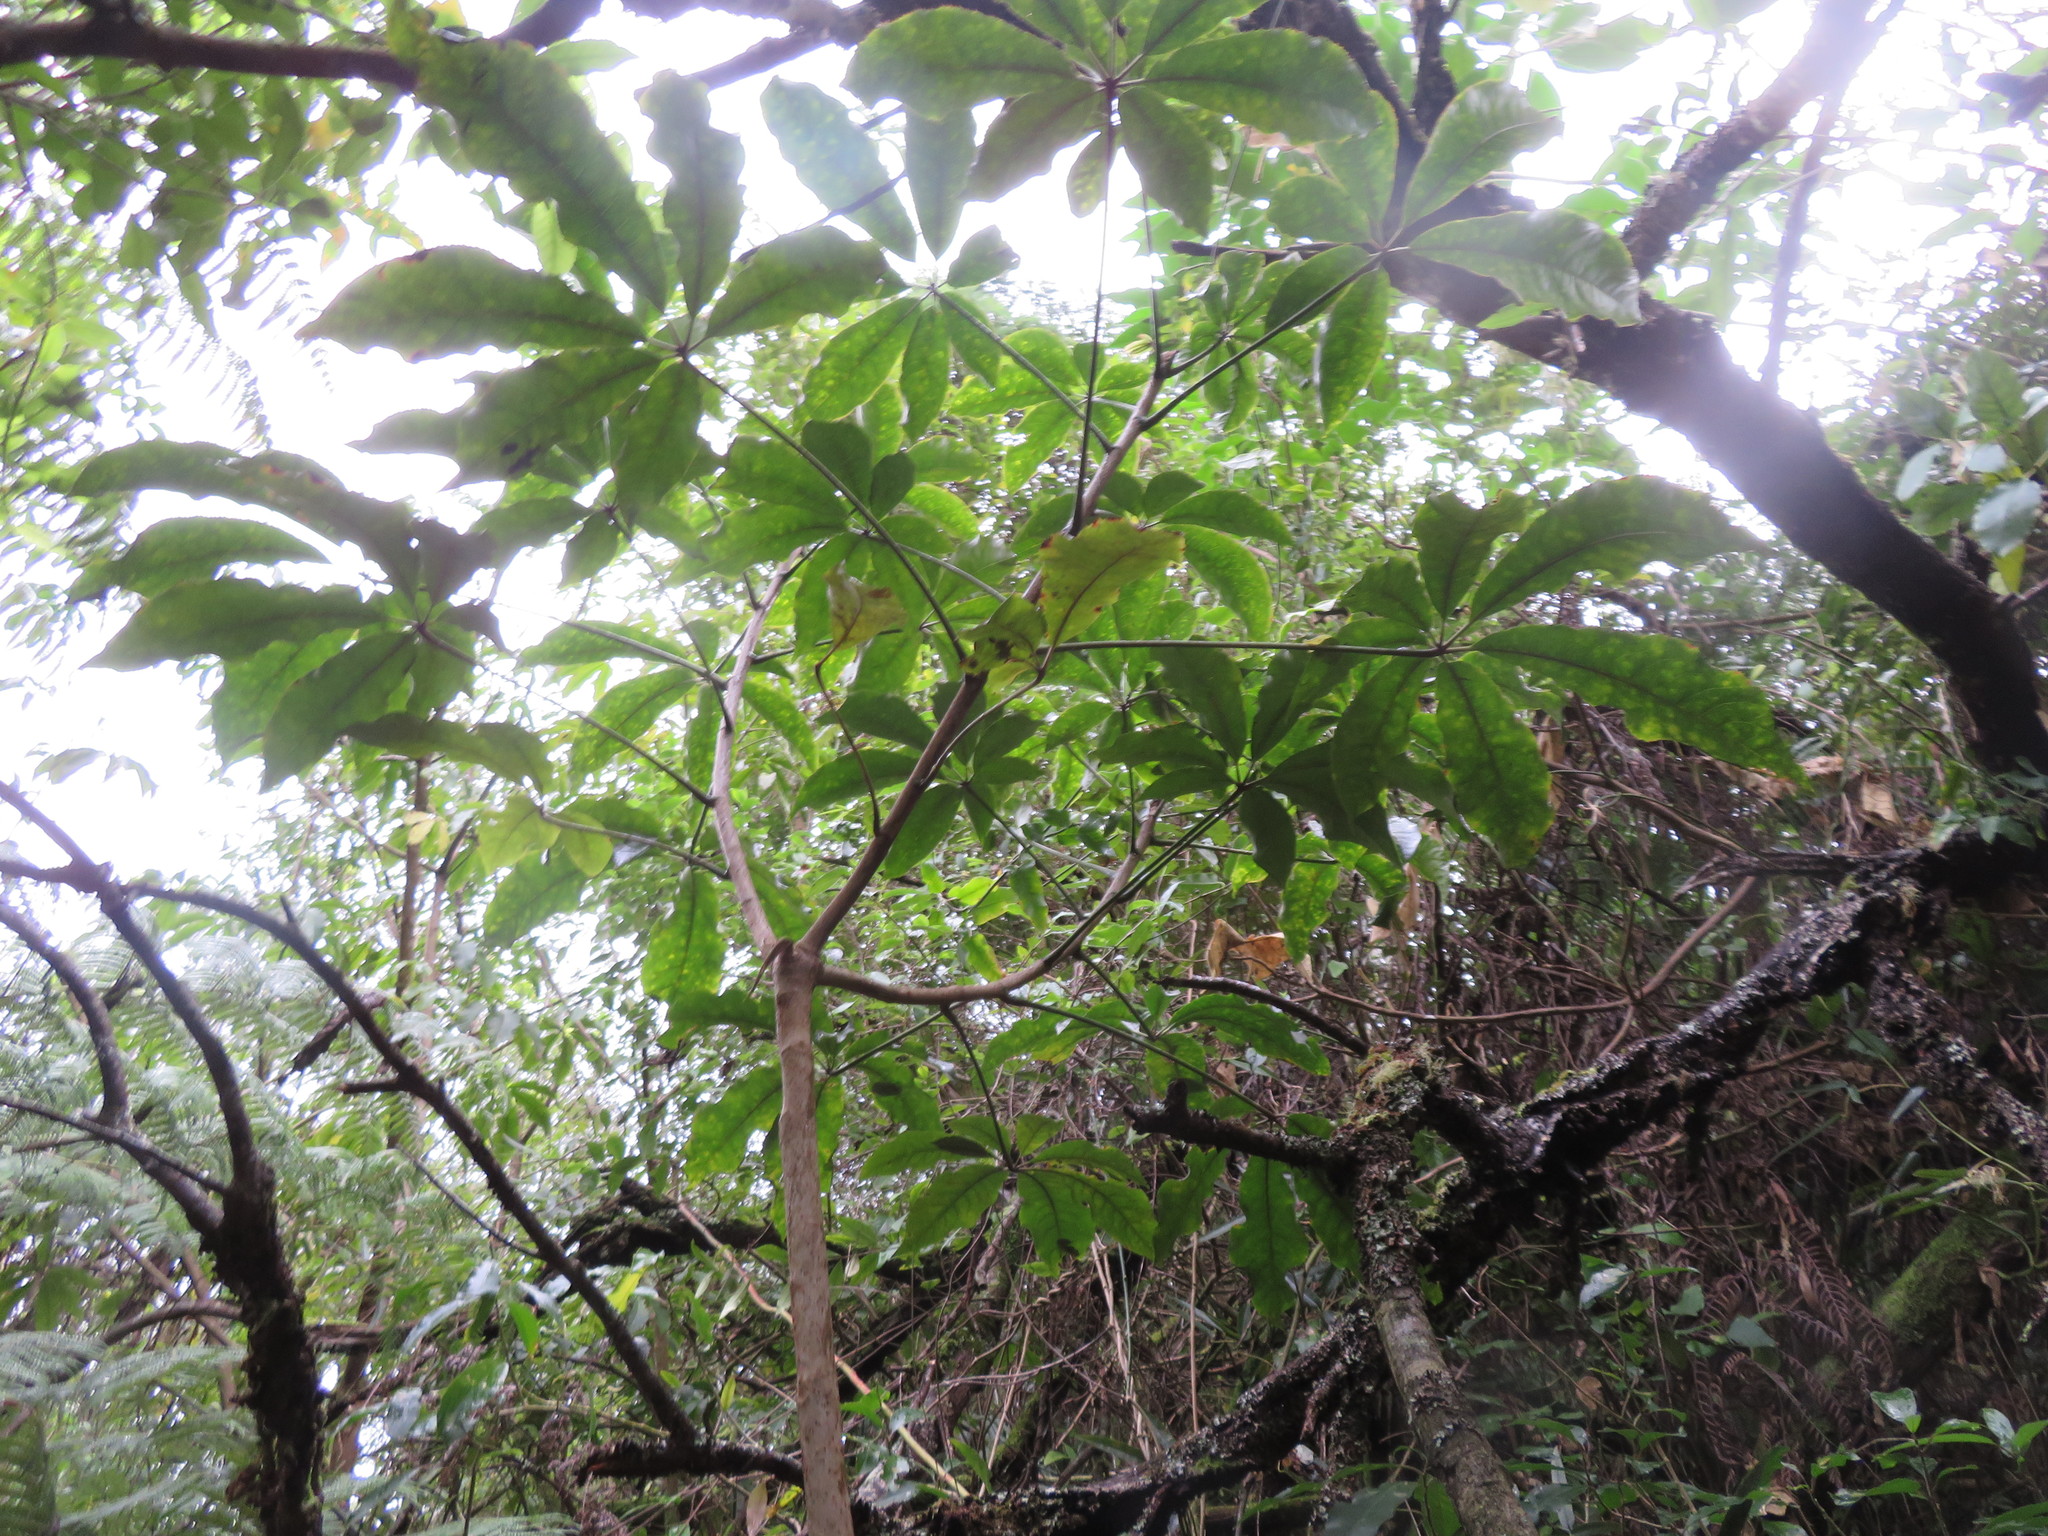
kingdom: Plantae
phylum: Tracheophyta
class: Magnoliopsida
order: Apiales
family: Araliaceae
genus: Schefflera
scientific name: Schefflera digitata
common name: Pate
